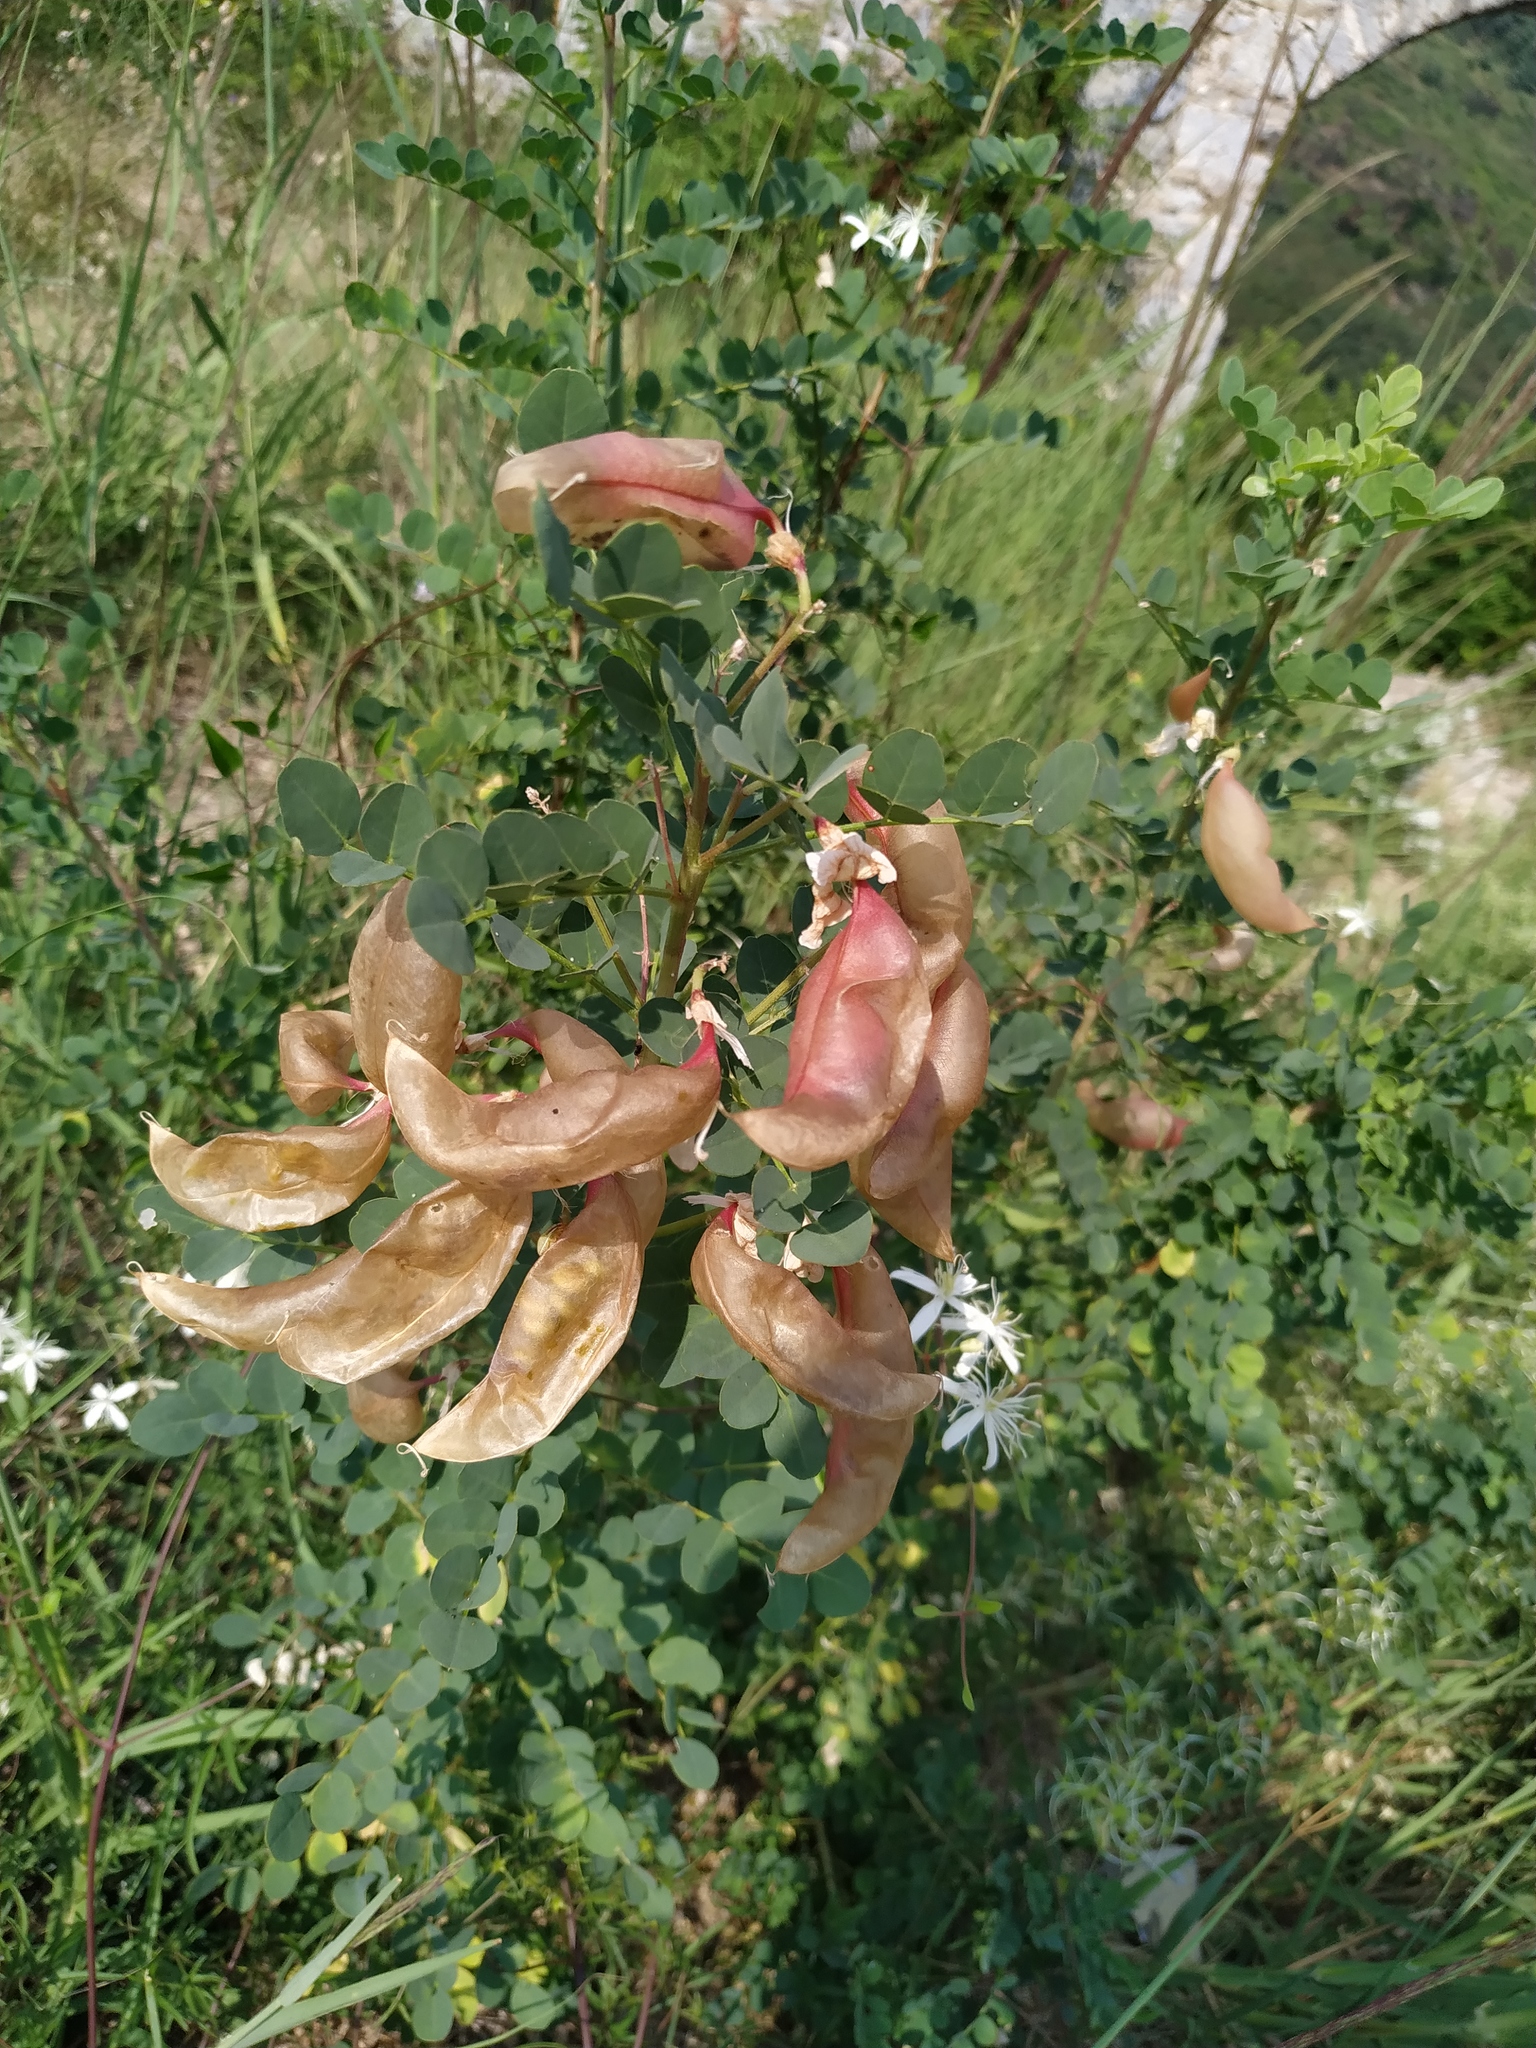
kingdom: Plantae
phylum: Tracheophyta
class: Magnoliopsida
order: Fabales
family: Fabaceae
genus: Colutea
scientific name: Colutea arborescens
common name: Bladder-senna
